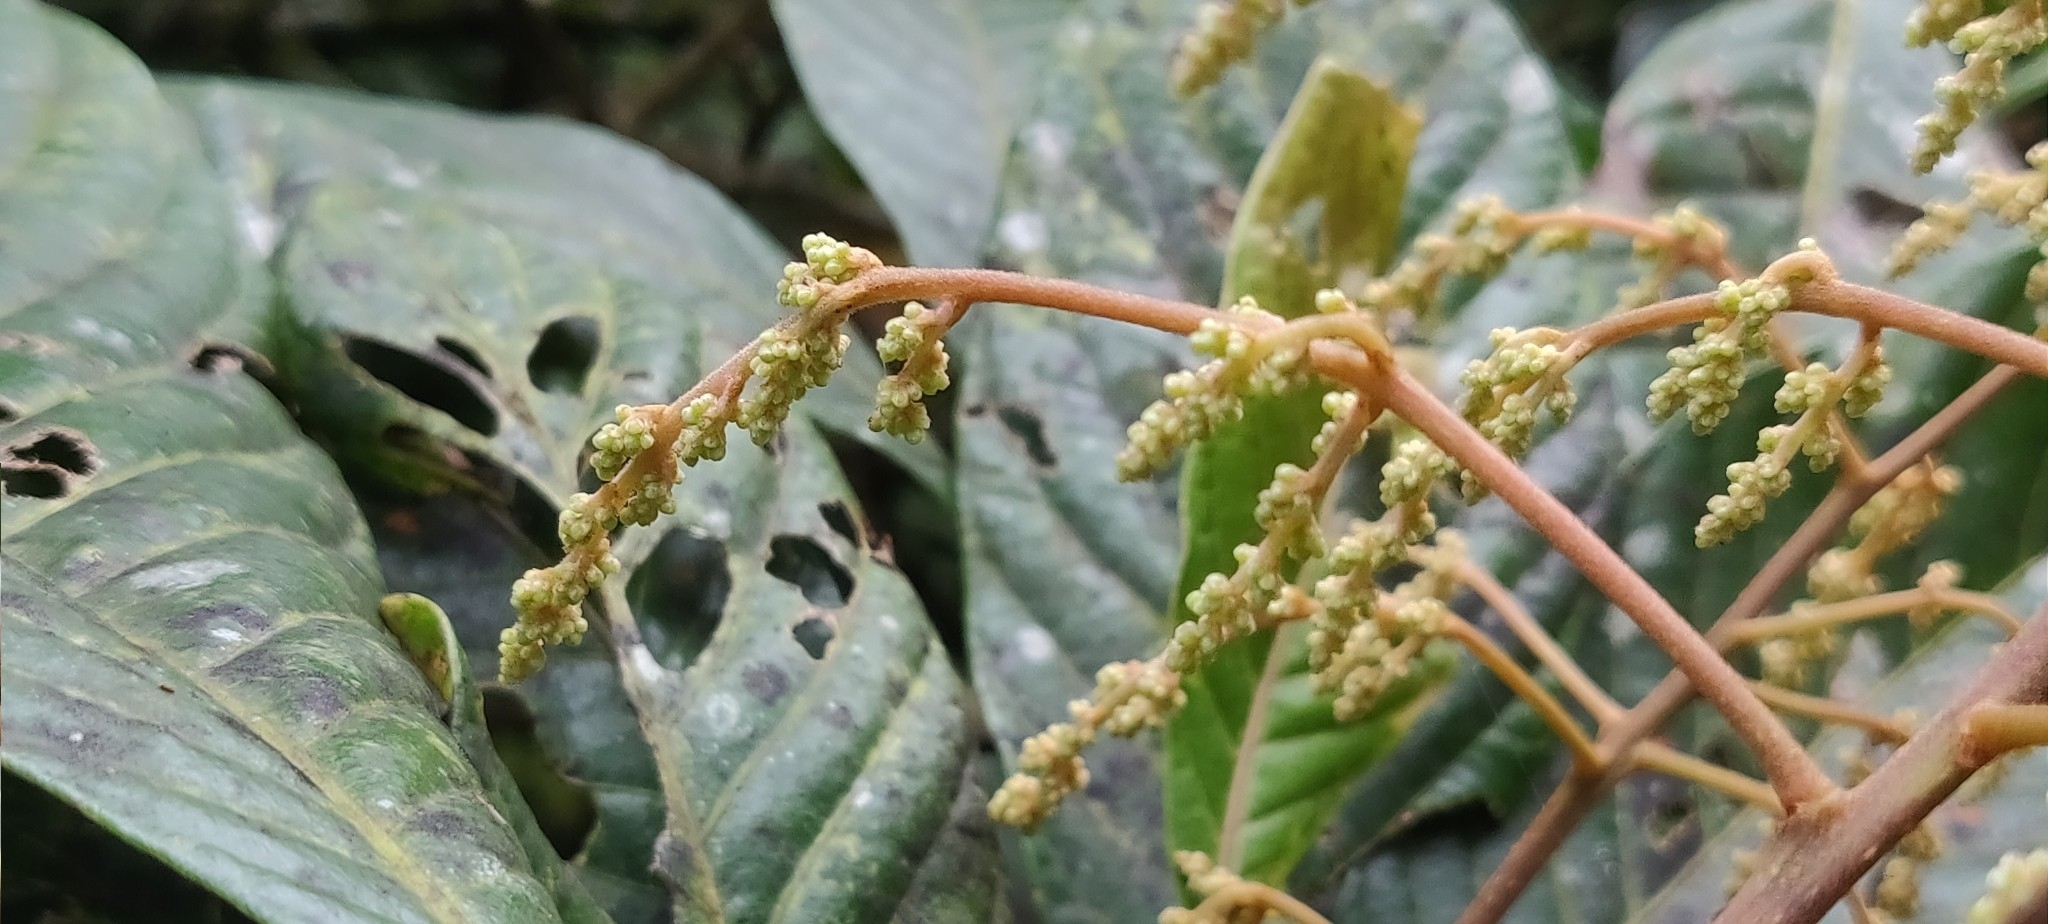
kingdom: Plantae
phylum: Tracheophyta
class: Magnoliopsida
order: Proteales
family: Sabiaceae
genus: Meliosma
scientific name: Meliosma simplicifolia
